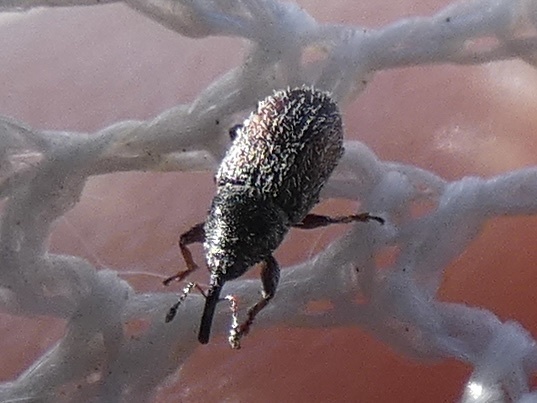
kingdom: Animalia
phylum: Arthropoda
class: Insecta
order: Coleoptera
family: Curculionidae
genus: Mecinus
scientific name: Mecinus pascuorum
